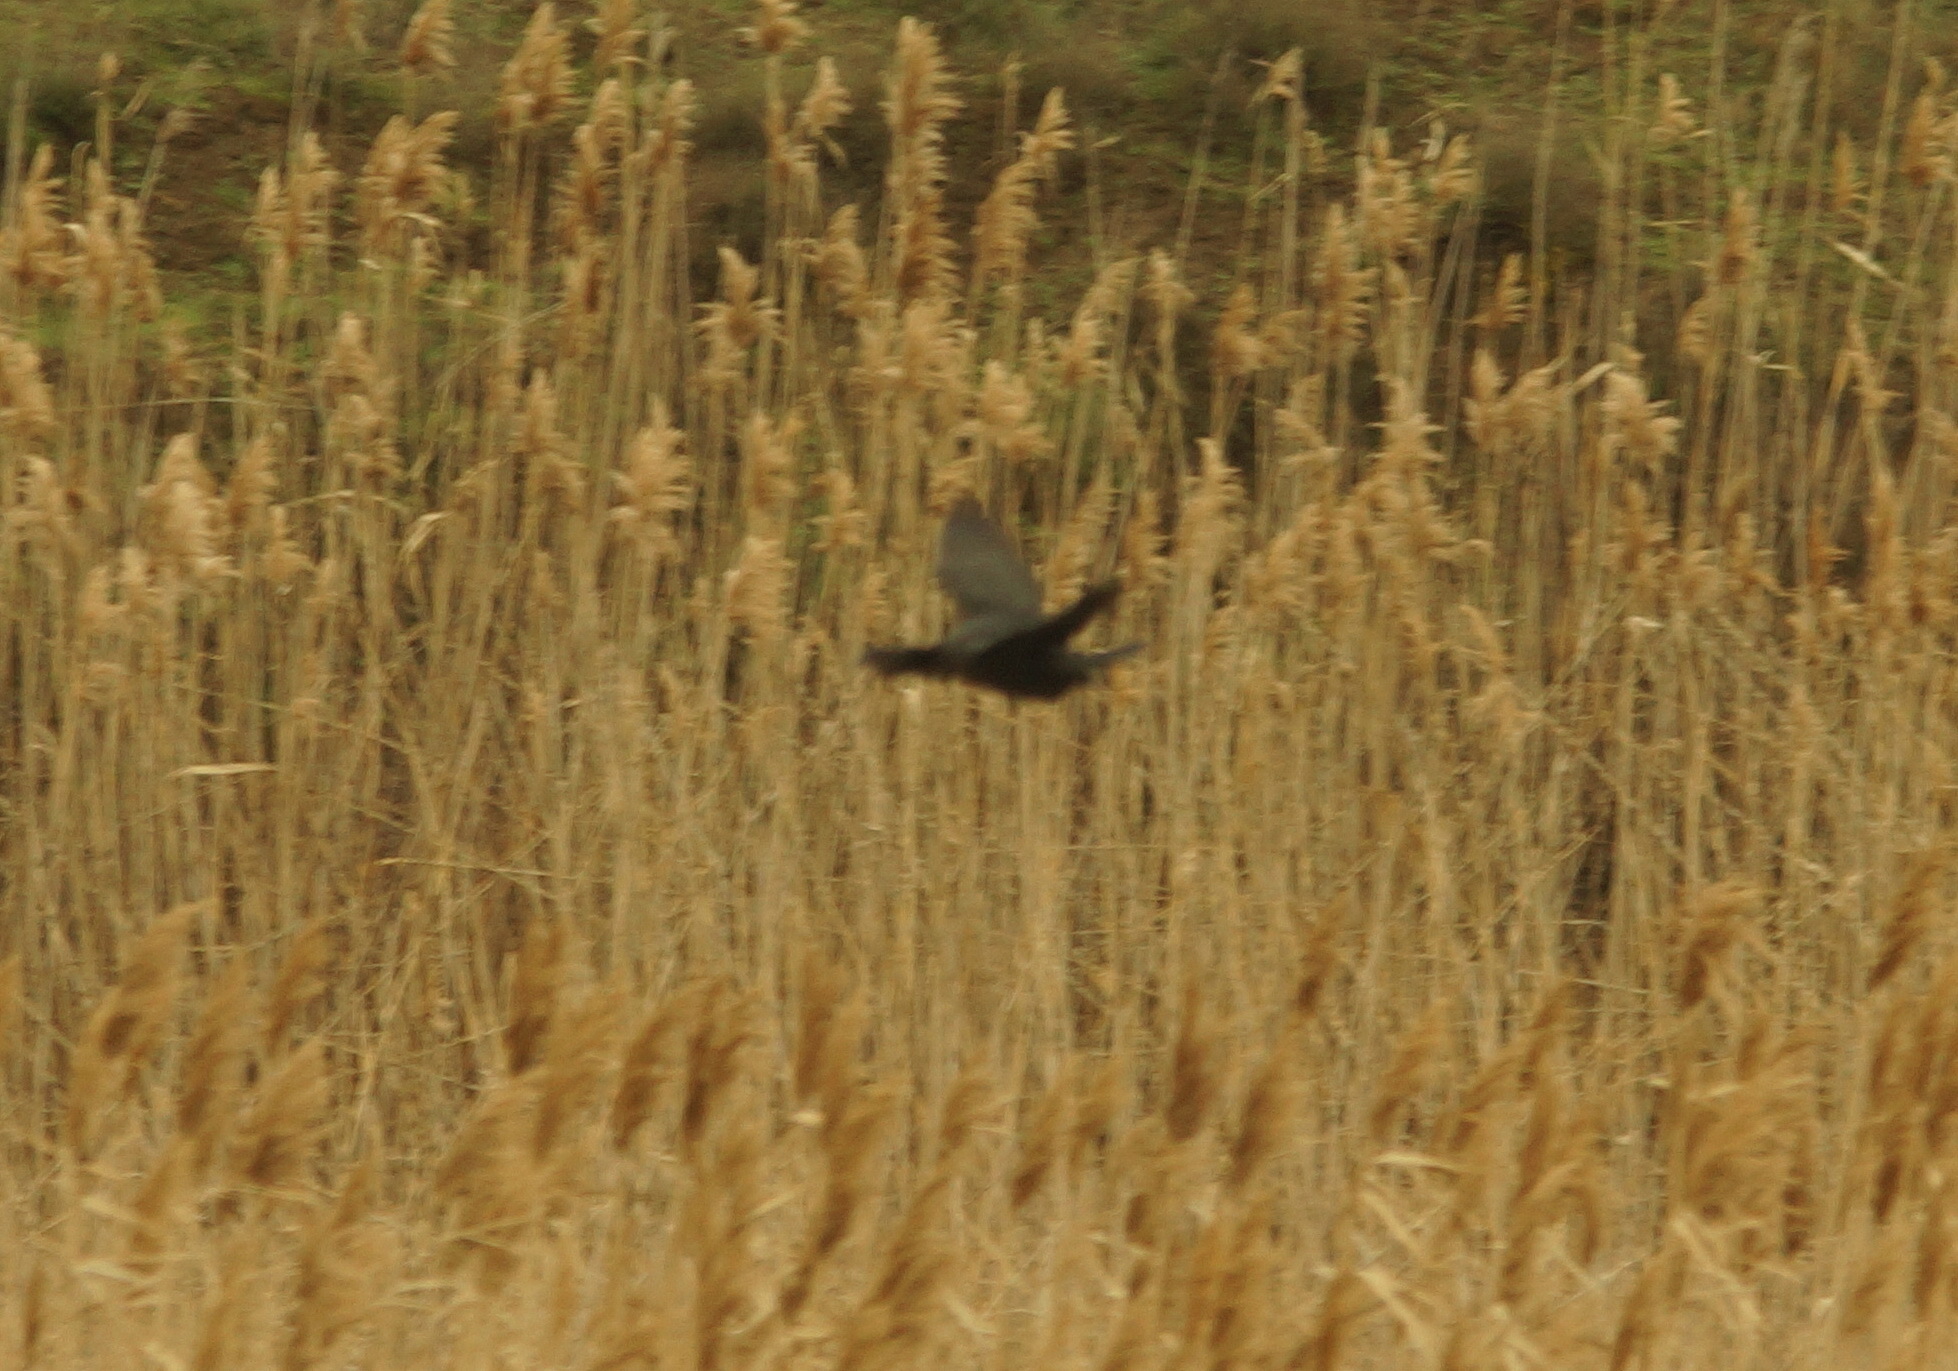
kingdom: Animalia
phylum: Chordata
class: Aves
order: Suliformes
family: Phalacrocoracidae
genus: Microcarbo
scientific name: Microcarbo pygmaeus
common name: Pygmy cormorant
